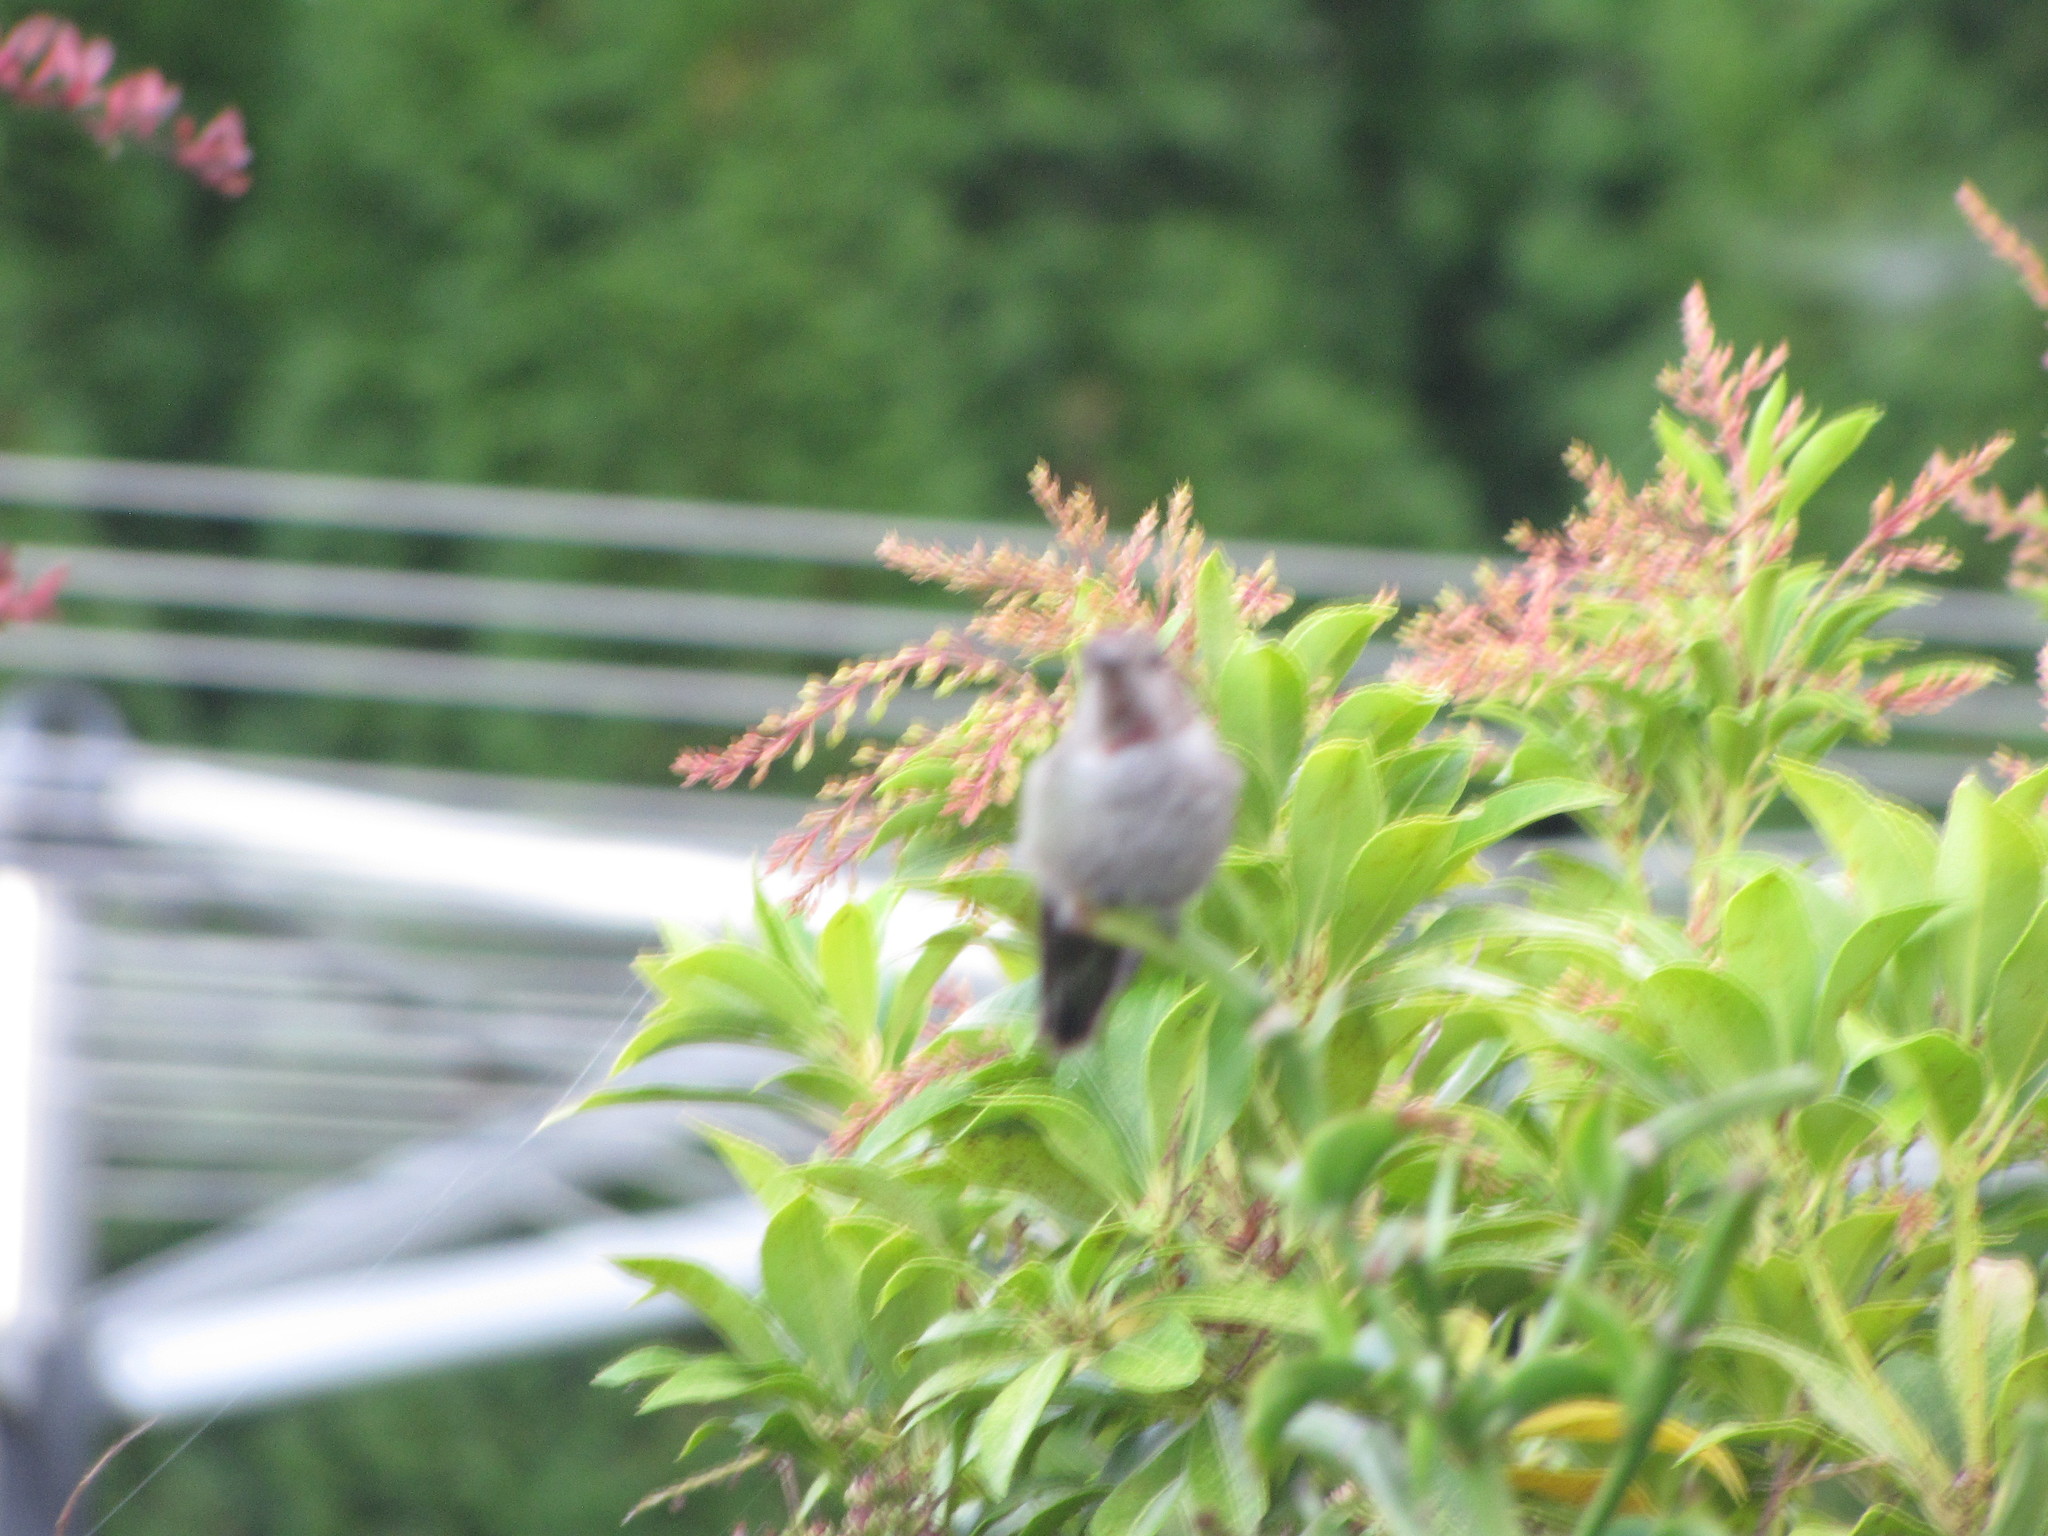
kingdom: Animalia
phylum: Chordata
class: Aves
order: Apodiformes
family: Trochilidae
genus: Calypte
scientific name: Calypte anna
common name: Anna's hummingbird
